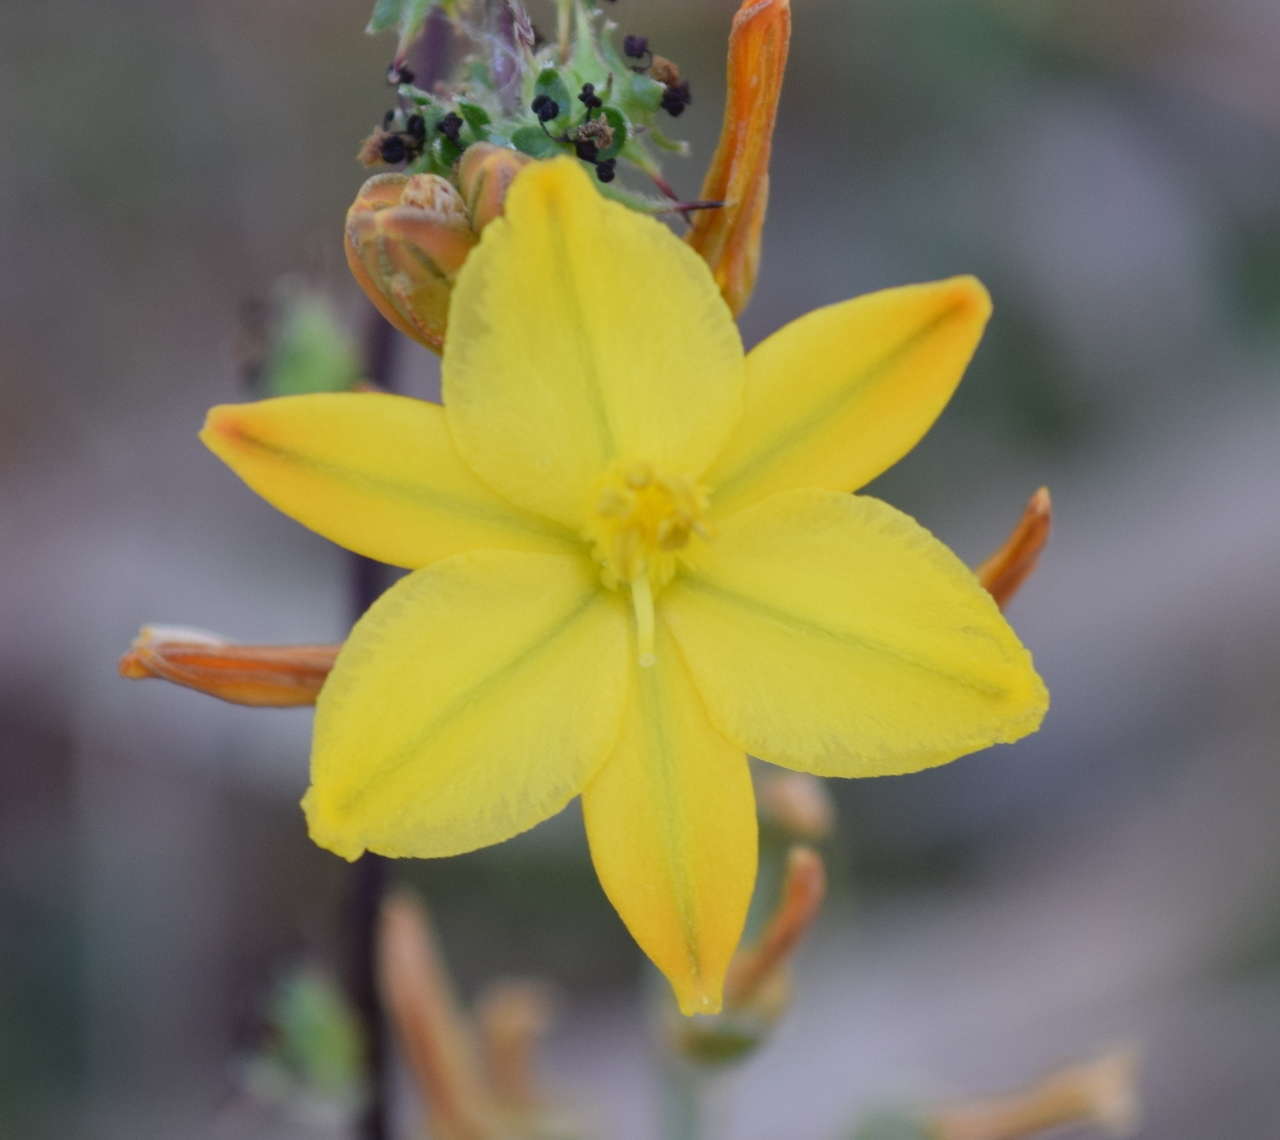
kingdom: Plantae
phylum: Tracheophyta
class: Liliopsida
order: Asparagales
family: Asphodelaceae
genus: Bulbine
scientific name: Bulbine bulbosa
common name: Golden-lily
